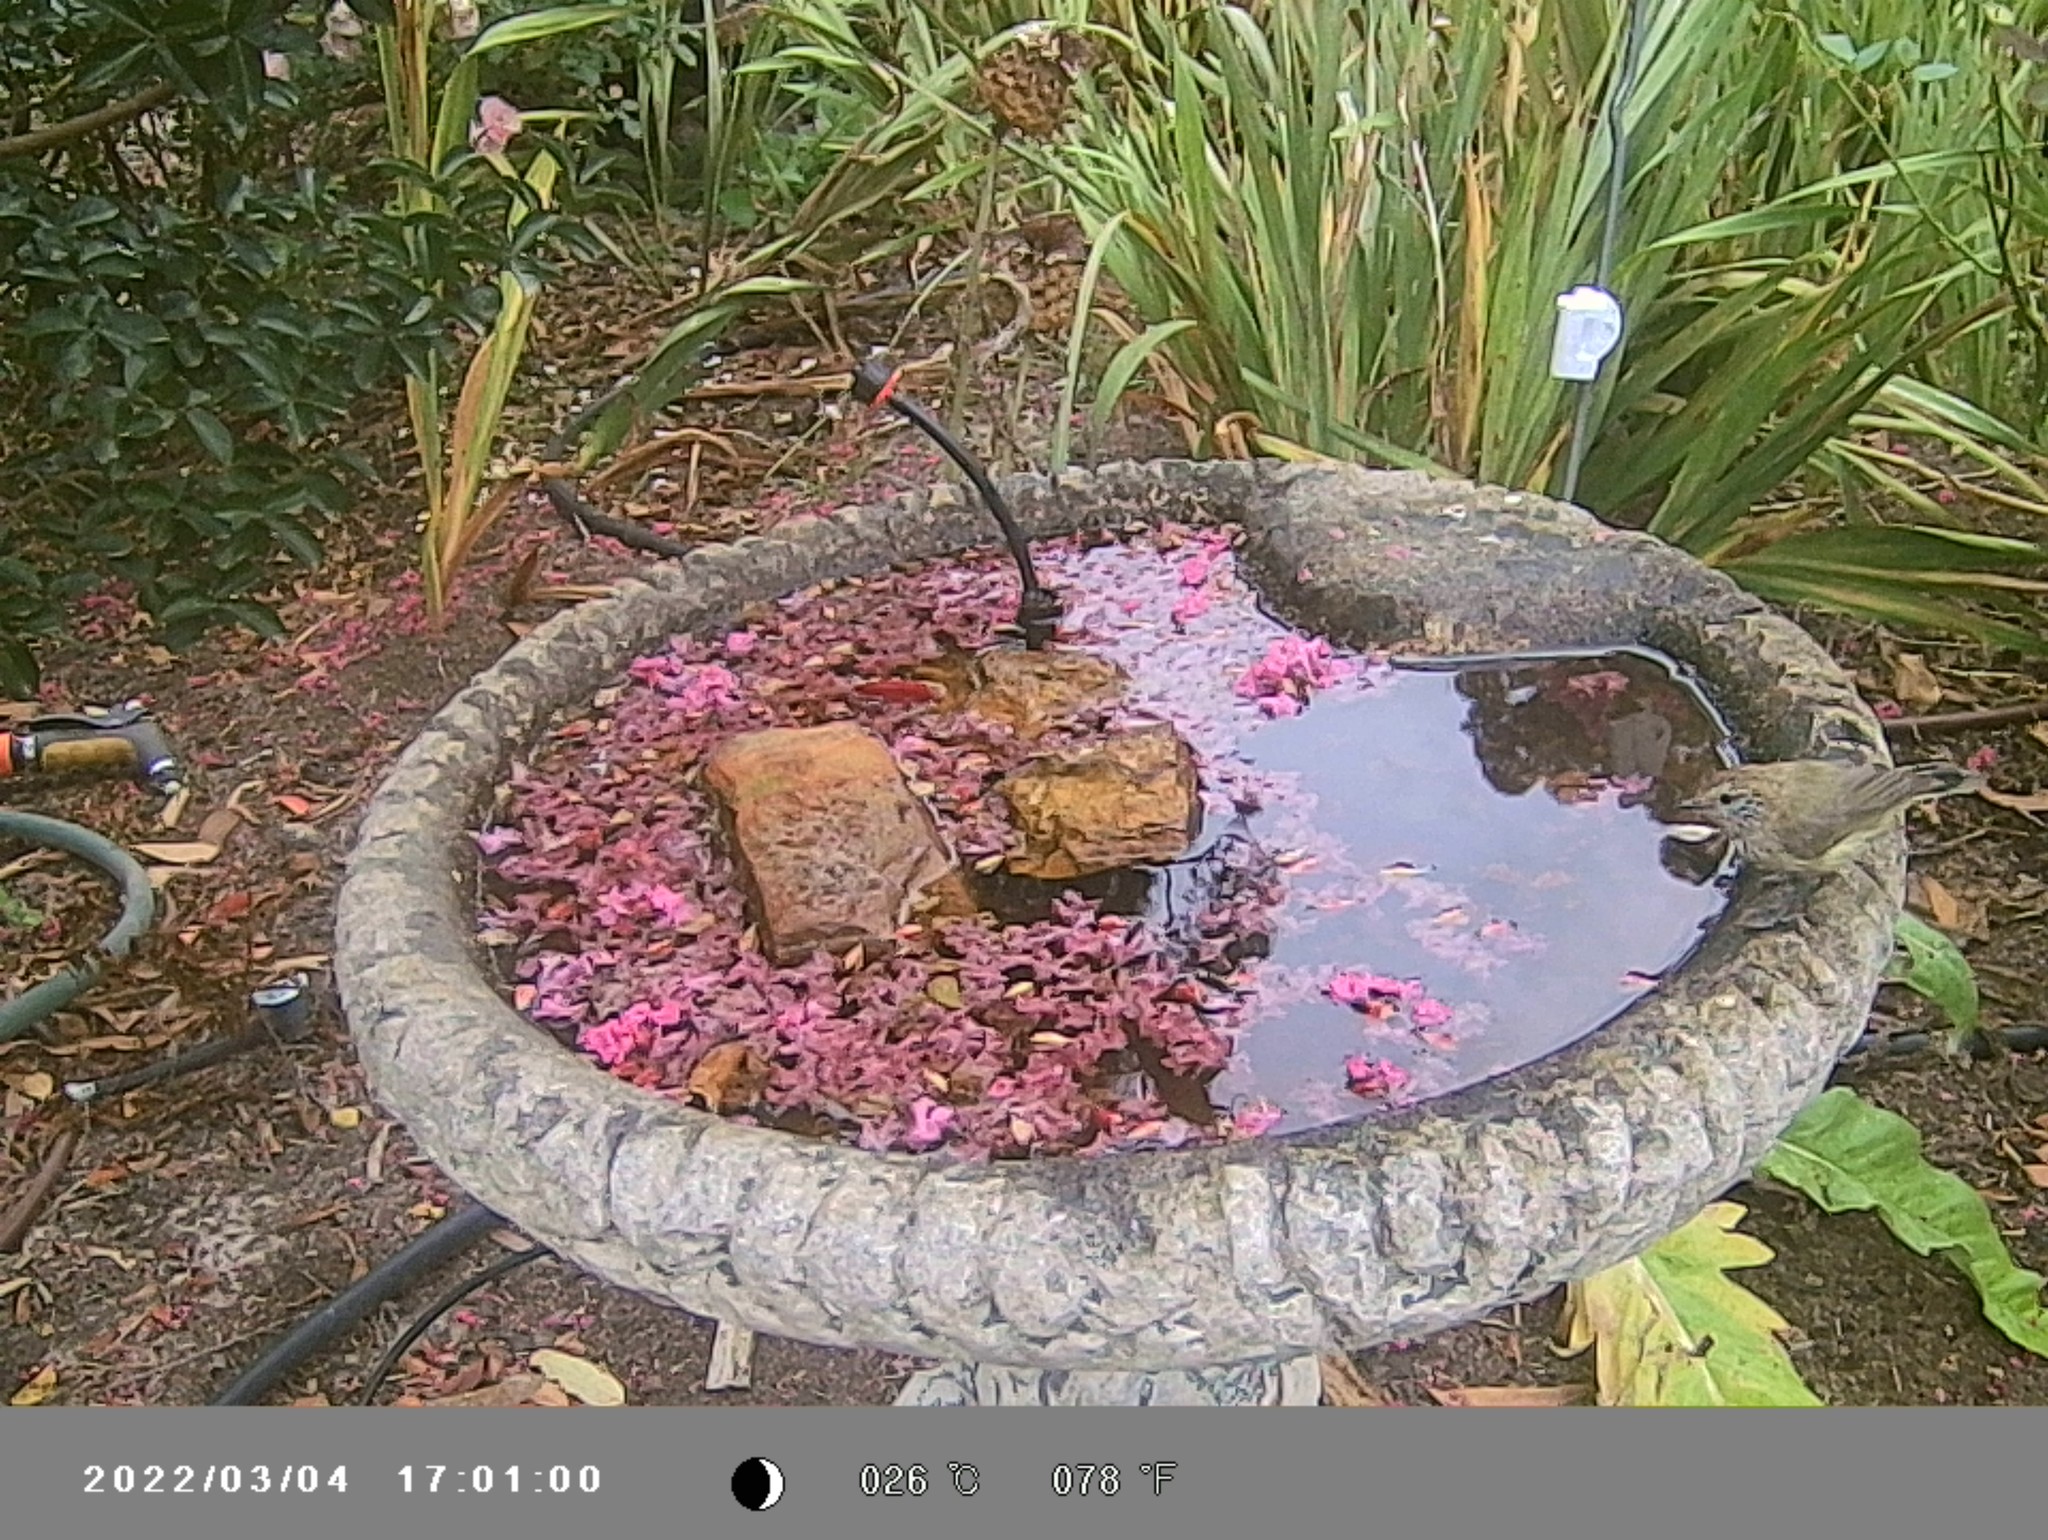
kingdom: Animalia
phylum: Chordata
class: Aves
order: Passeriformes
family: Acanthizidae
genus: Acanthiza
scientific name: Acanthiza lineata
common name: Striated thornbill
